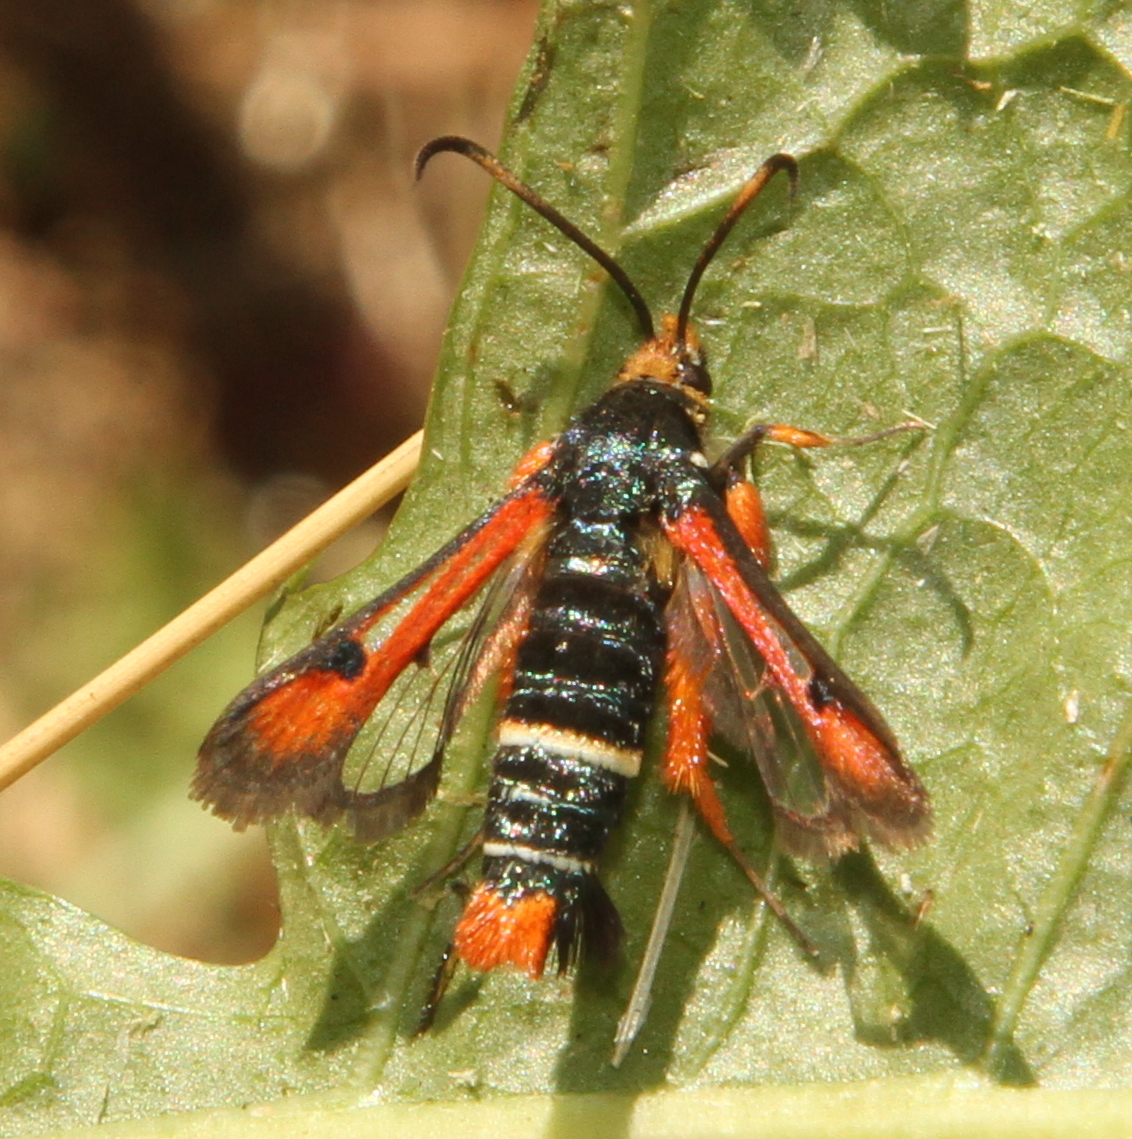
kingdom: Animalia
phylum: Arthropoda
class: Insecta
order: Lepidoptera
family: Sesiidae
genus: Pyropteron
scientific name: Pyropteron chrysidiforme
